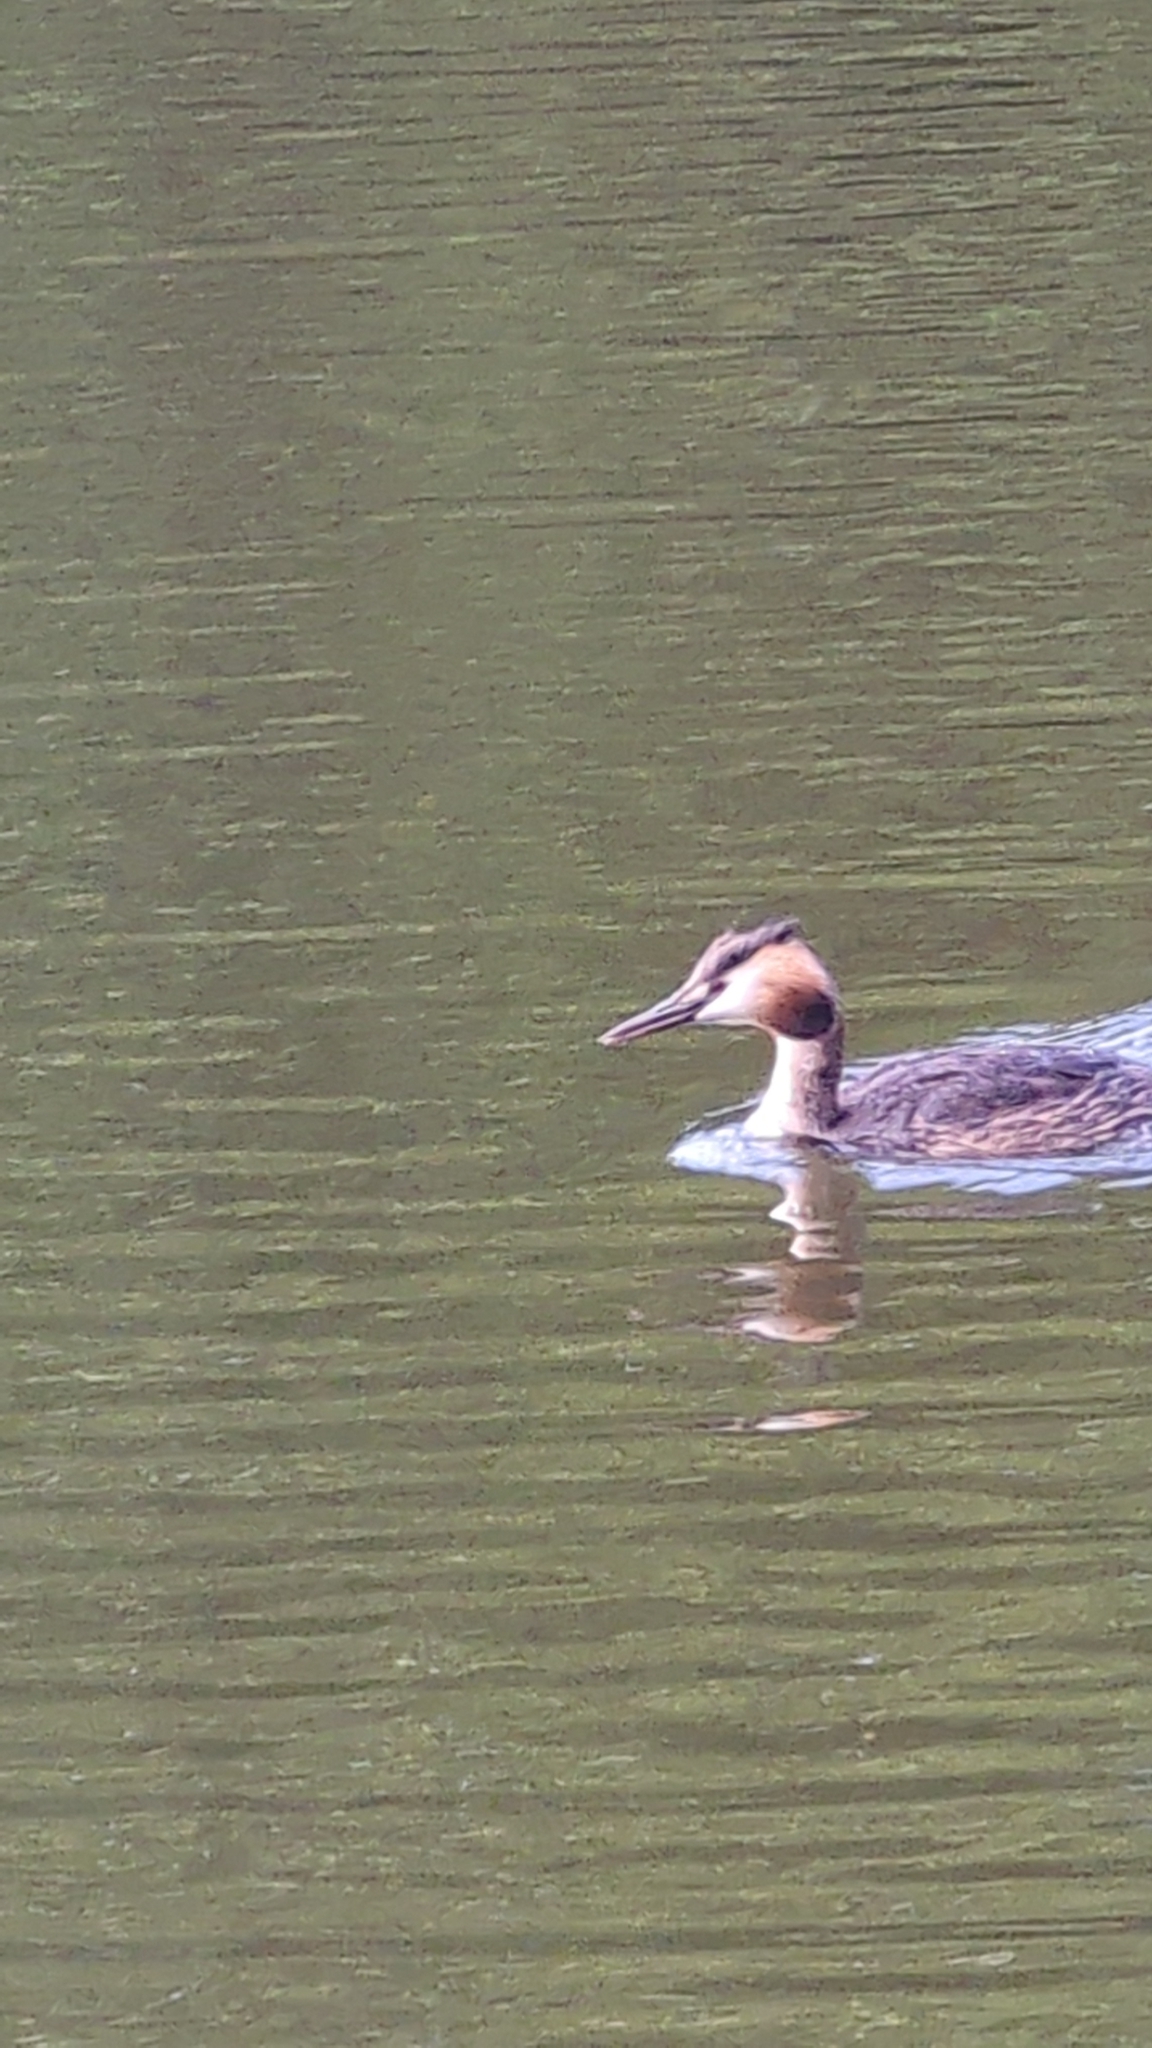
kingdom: Animalia
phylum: Chordata
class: Aves
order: Podicipediformes
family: Podicipedidae
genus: Podiceps
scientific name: Podiceps cristatus
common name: Great crested grebe
